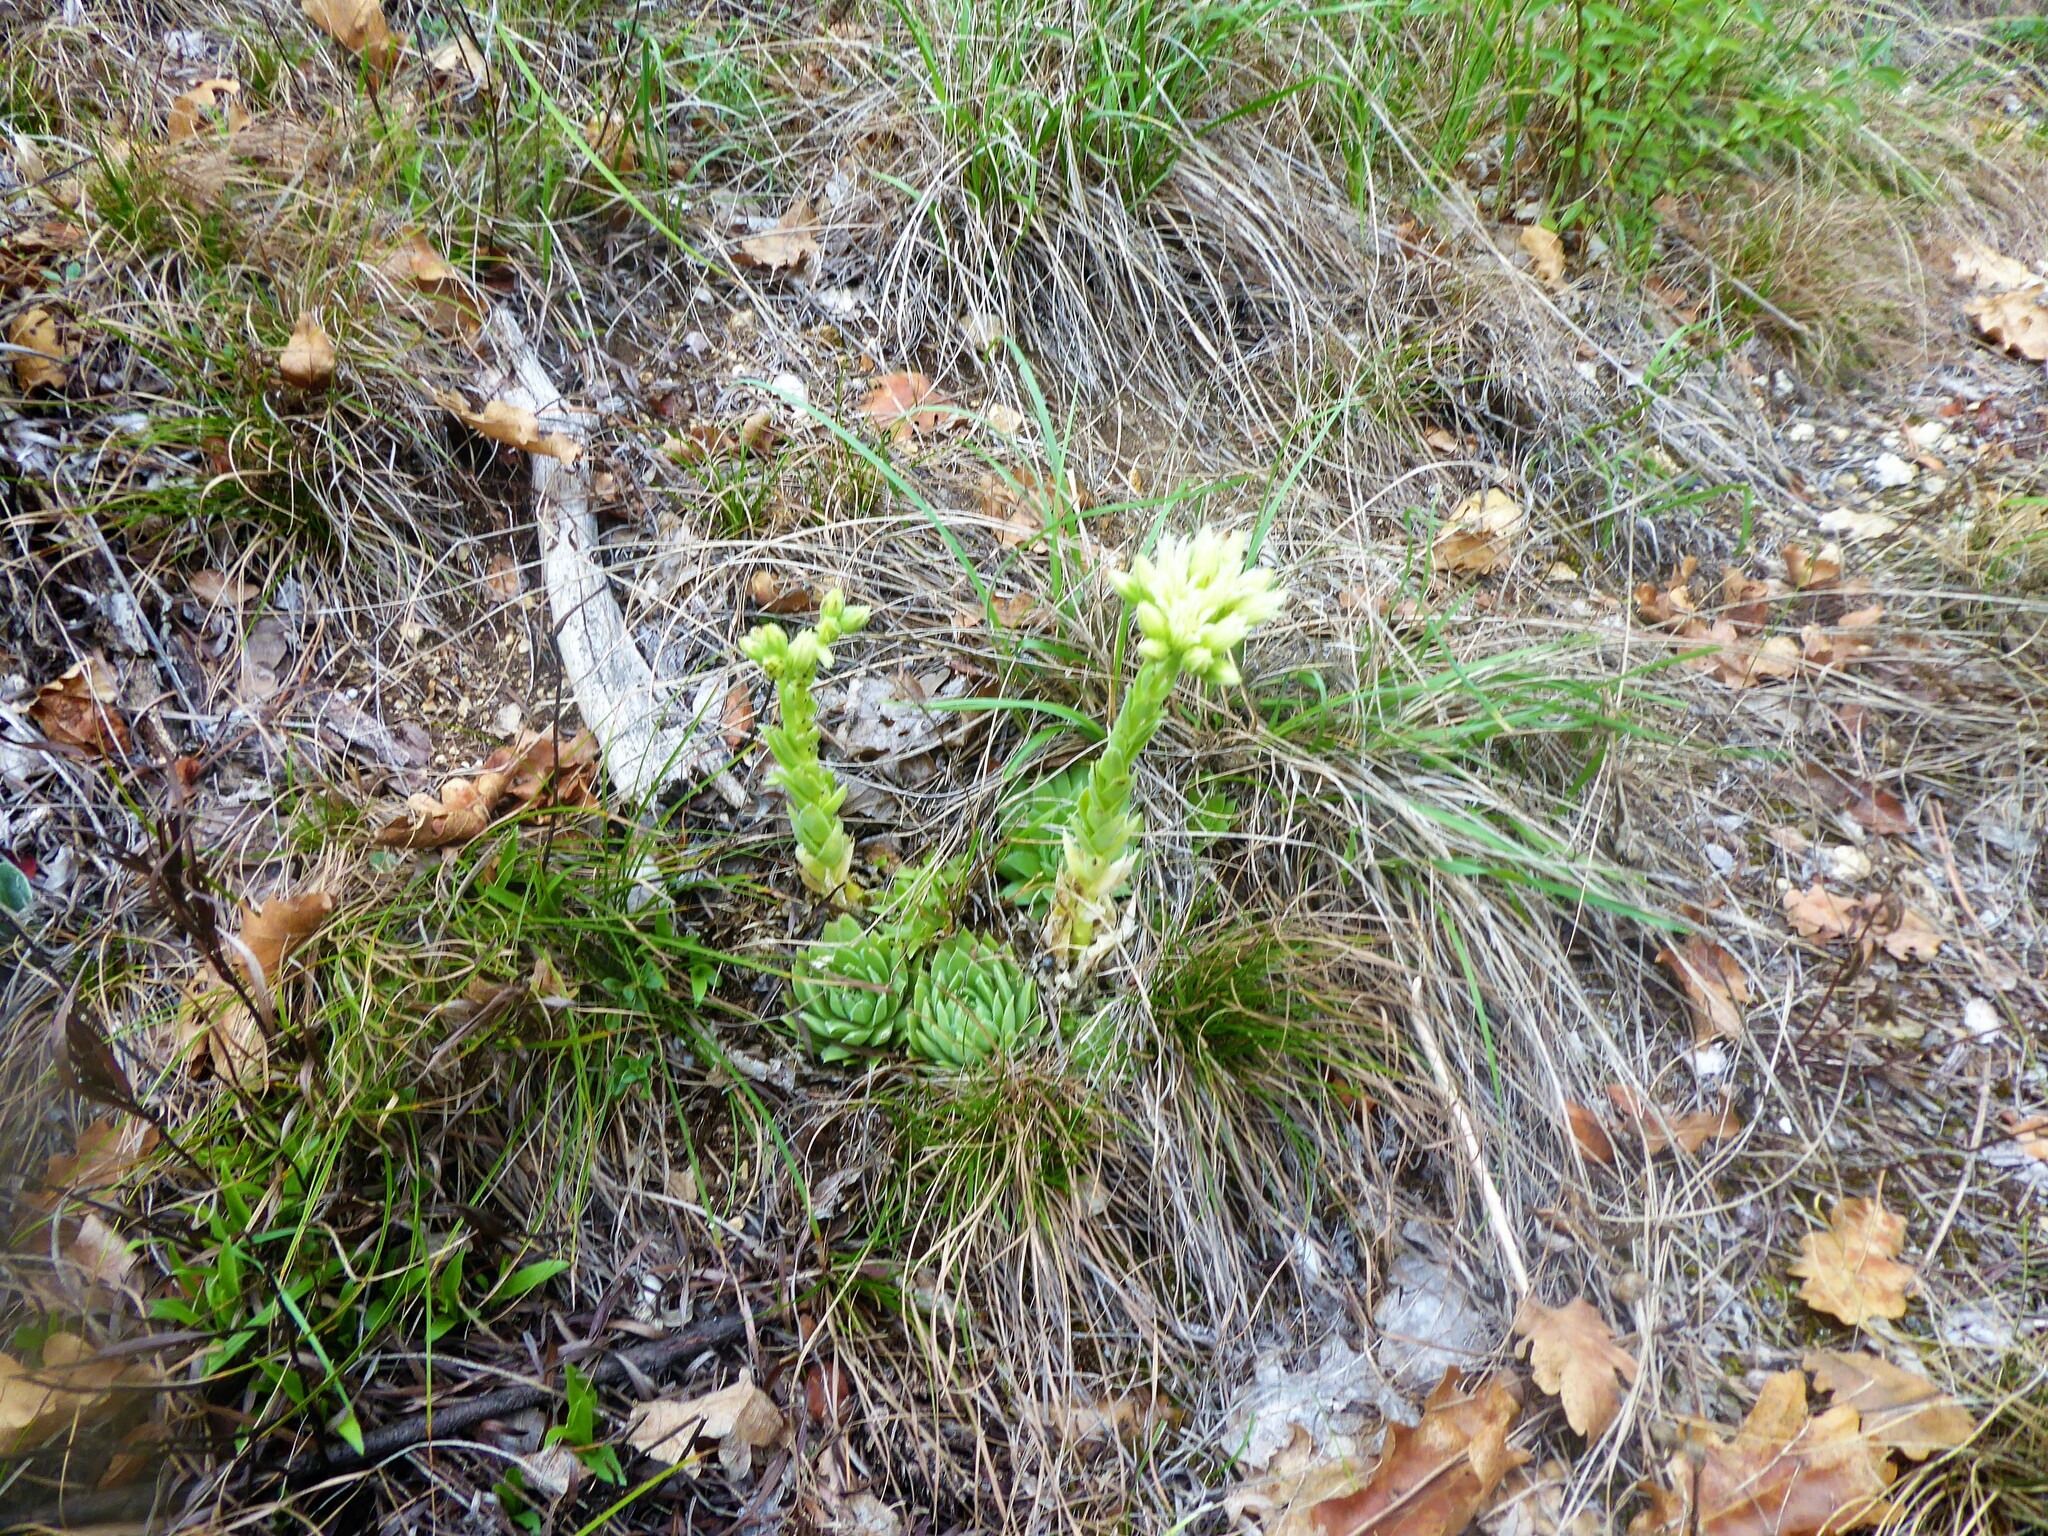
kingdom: Plantae
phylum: Tracheophyta
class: Magnoliopsida
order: Saxifragales
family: Crassulaceae
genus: Sempervivum
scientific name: Sempervivum globiferum
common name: Rolling hen-and-chicks
